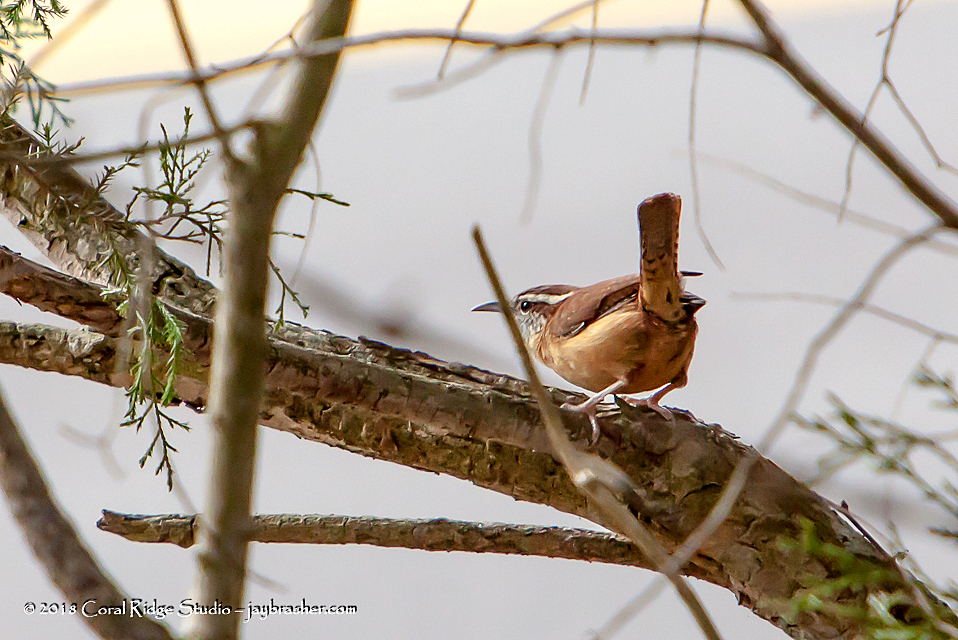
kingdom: Animalia
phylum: Chordata
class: Aves
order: Passeriformes
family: Troglodytidae
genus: Thryothorus
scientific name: Thryothorus ludovicianus
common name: Carolina wren
